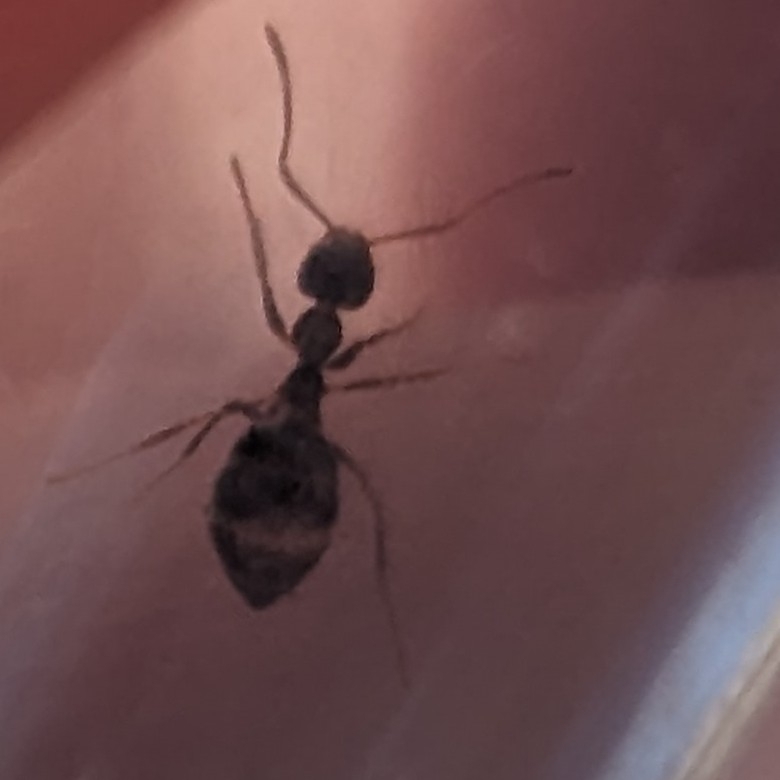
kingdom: Animalia
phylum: Arthropoda
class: Insecta
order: Hymenoptera
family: Formicidae
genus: Prenolepis
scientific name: Prenolepis imparis
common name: Small honey ant
